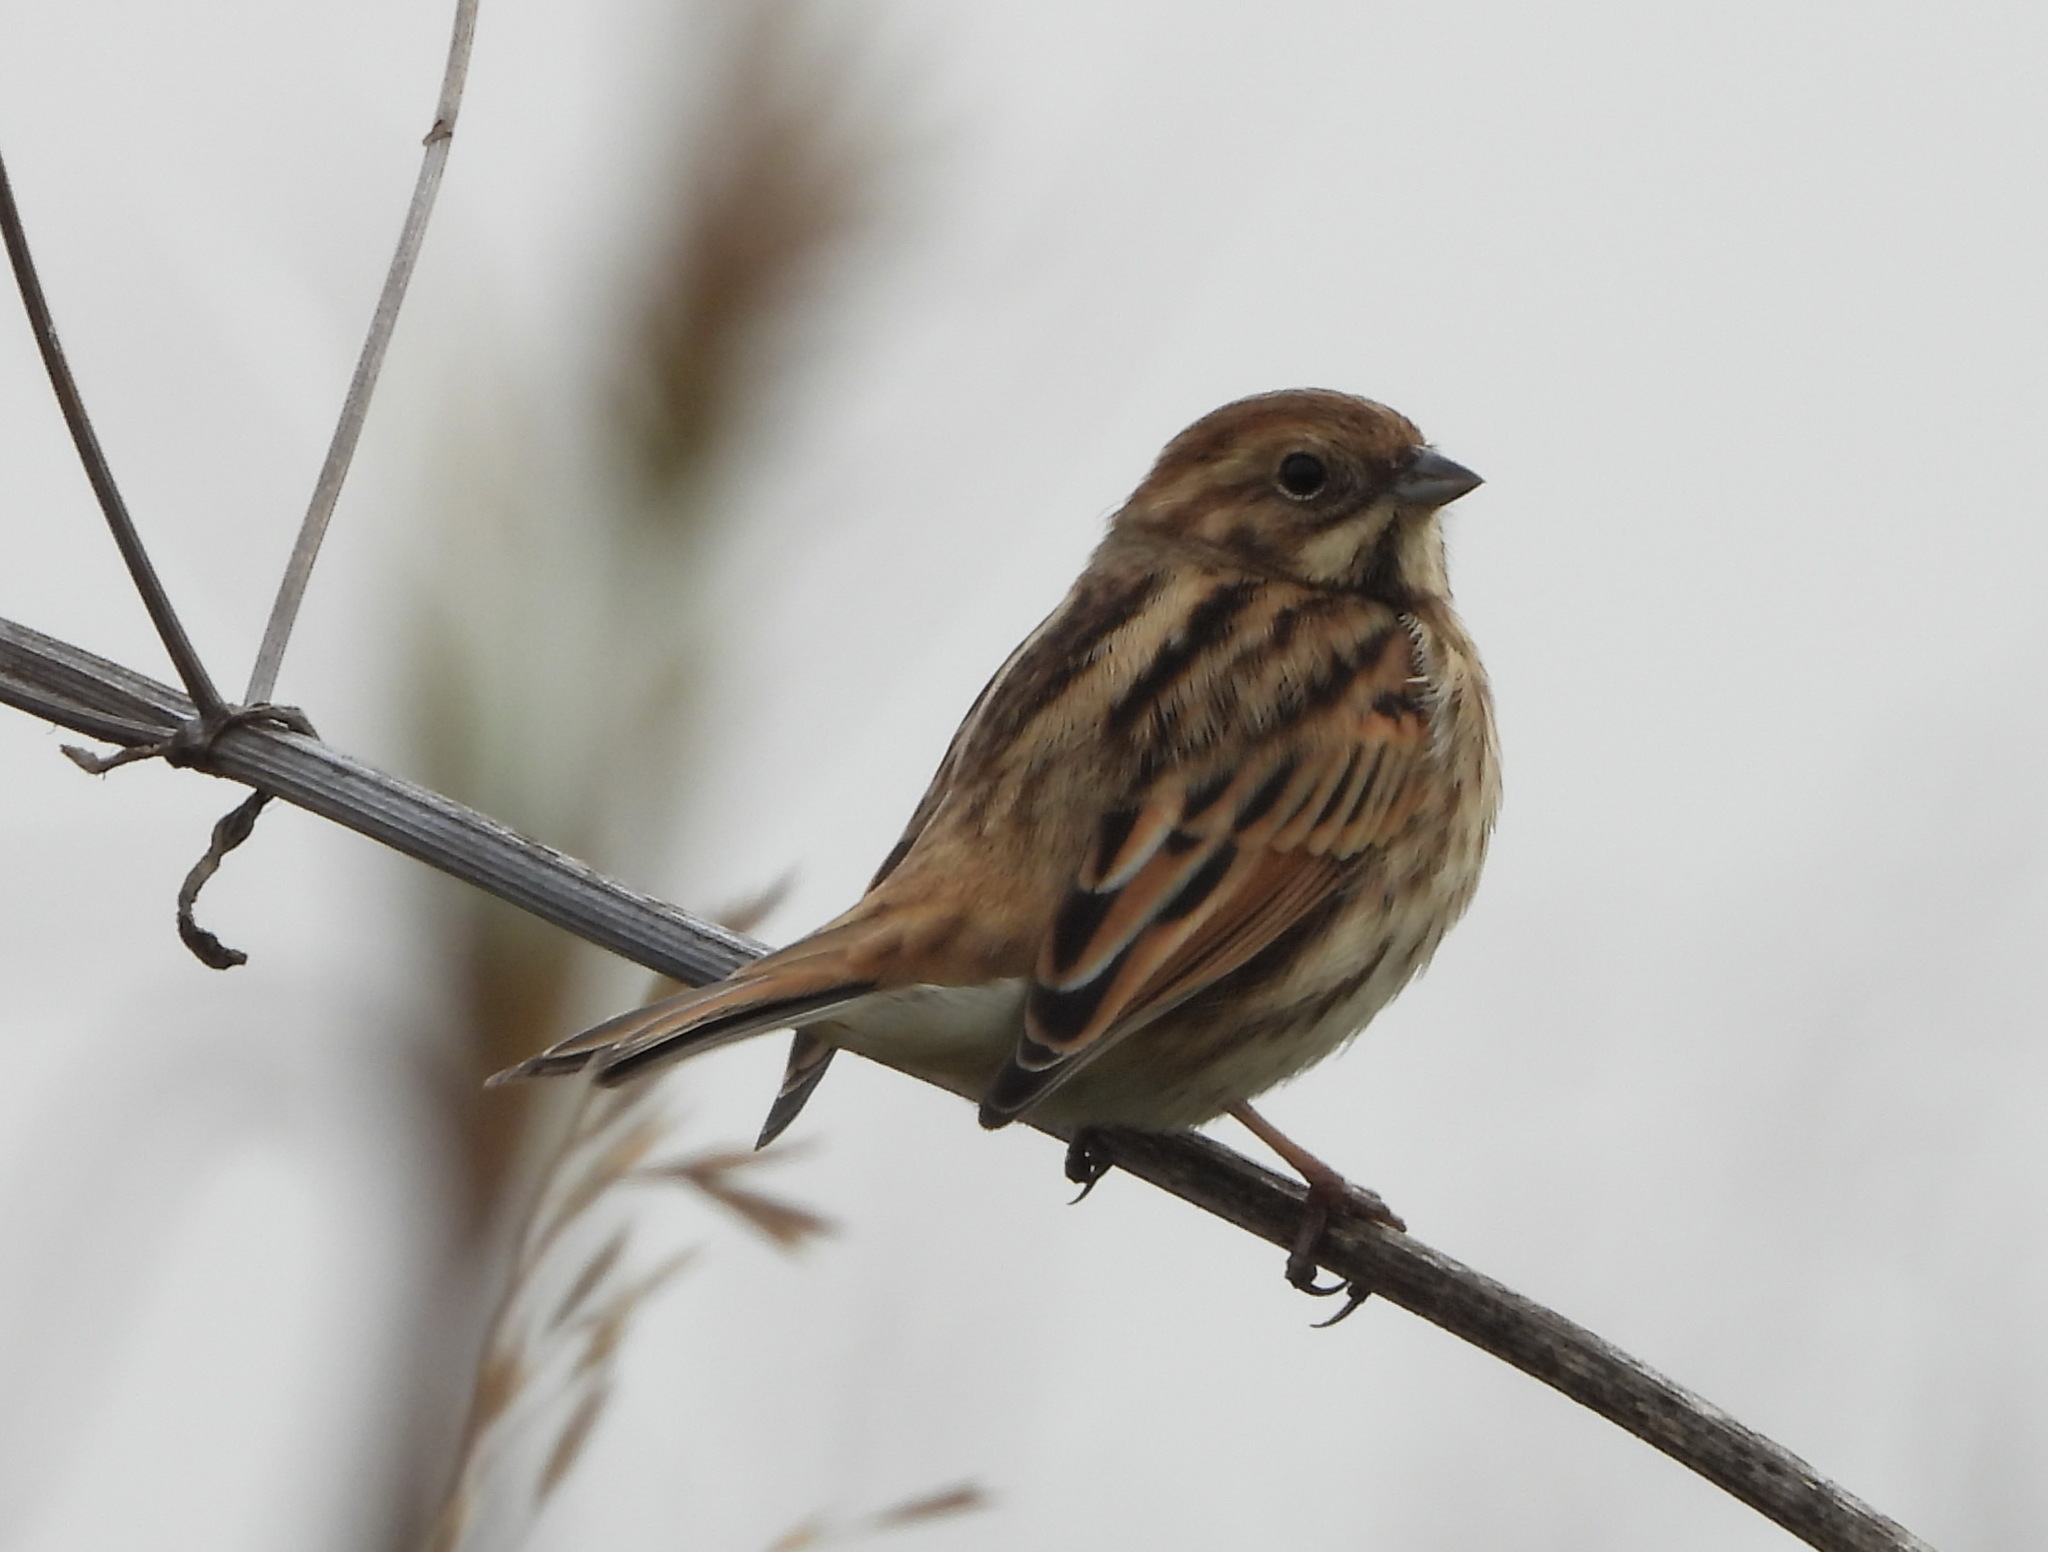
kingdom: Animalia
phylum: Chordata
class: Aves
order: Passeriformes
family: Emberizidae
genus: Emberiza
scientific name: Emberiza schoeniclus
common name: Reed bunting
